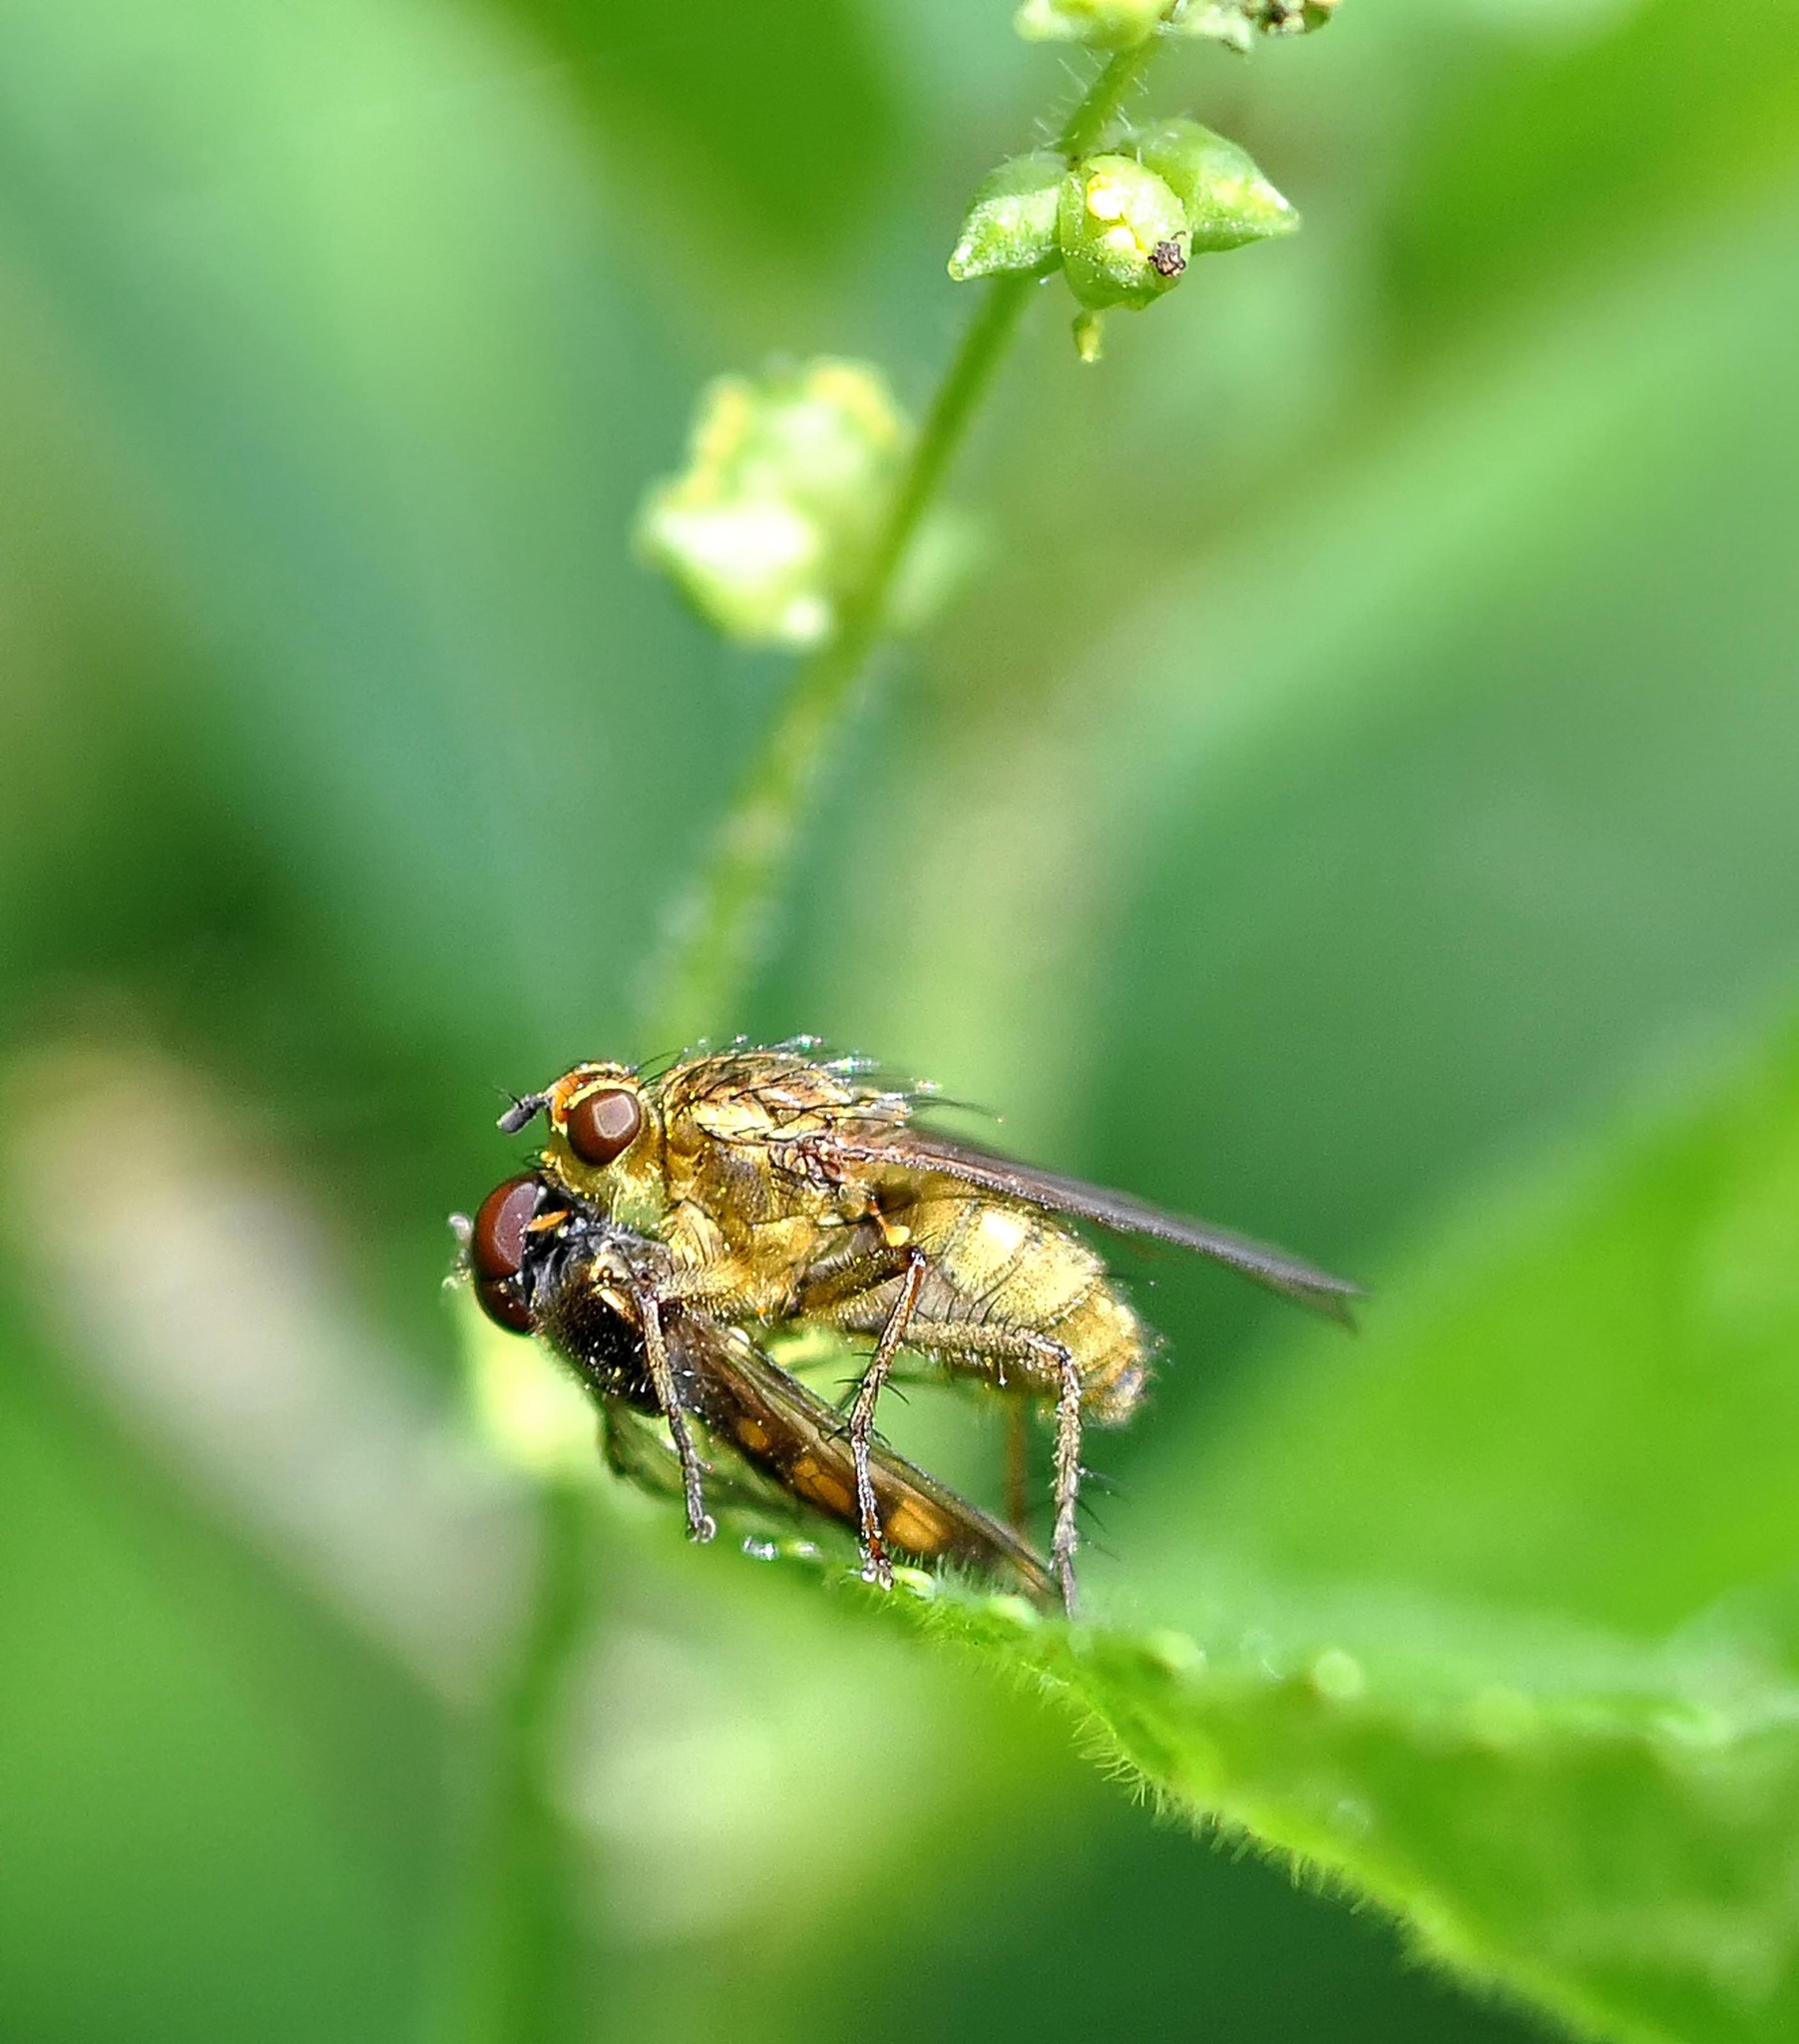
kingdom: Animalia
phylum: Arthropoda
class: Insecta
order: Diptera
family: Scathophagidae
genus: Scathophaga
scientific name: Scathophaga stercoraria
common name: Yellow dung fly
